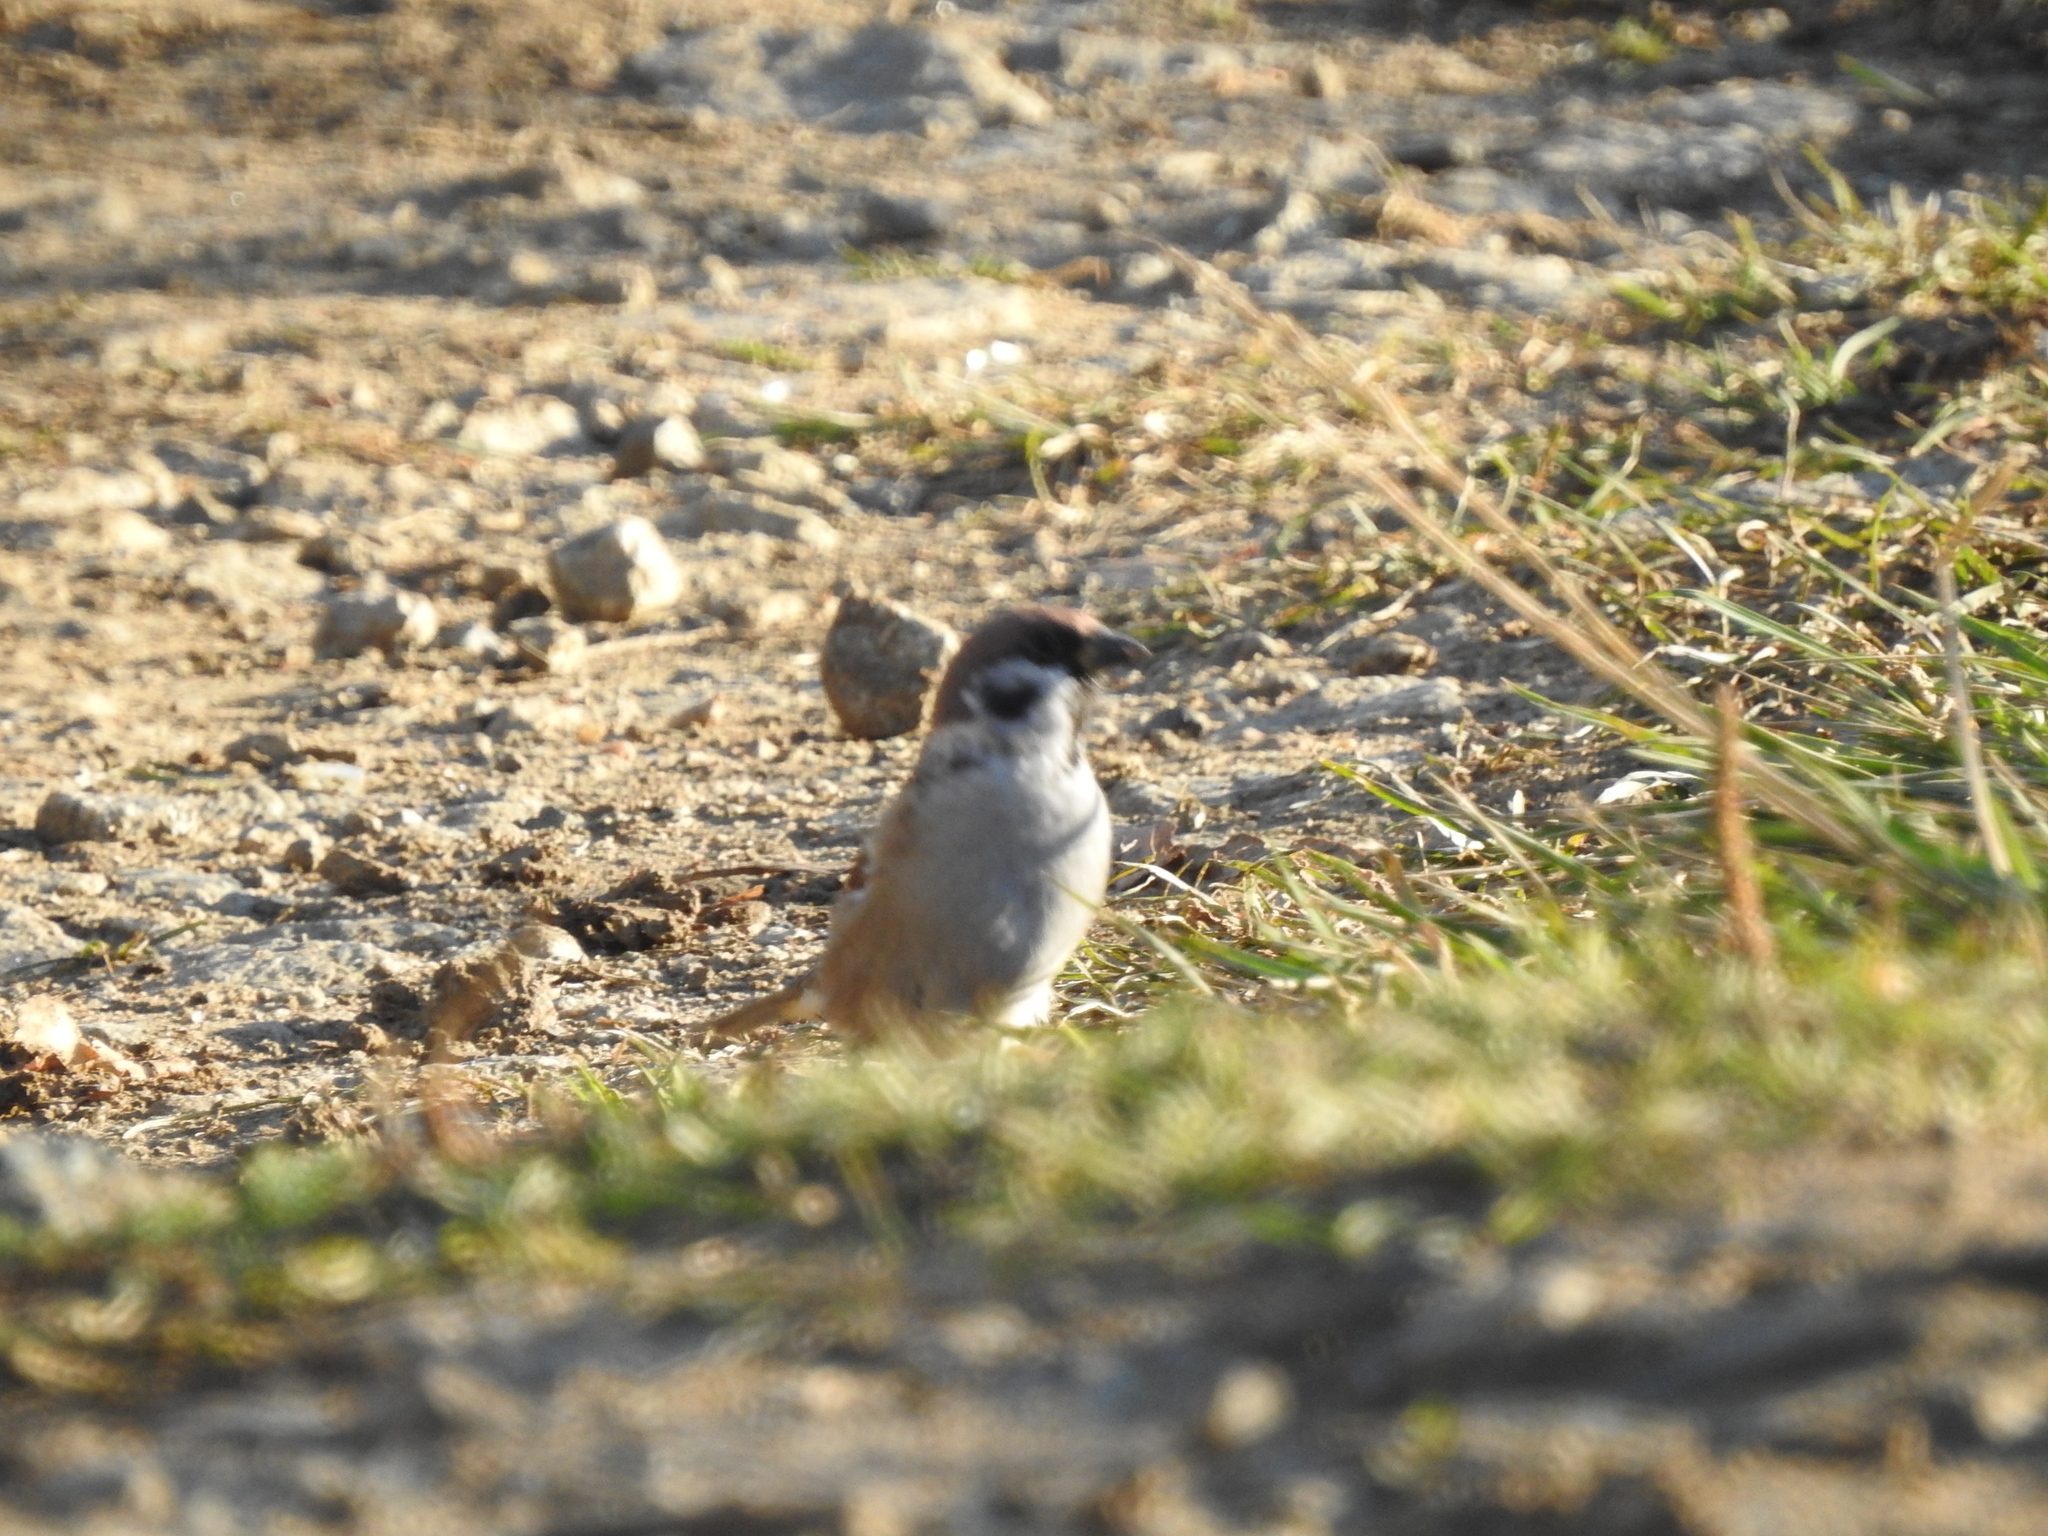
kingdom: Animalia
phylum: Chordata
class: Aves
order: Passeriformes
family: Passeridae
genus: Passer
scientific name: Passer montanus
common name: Eurasian tree sparrow
